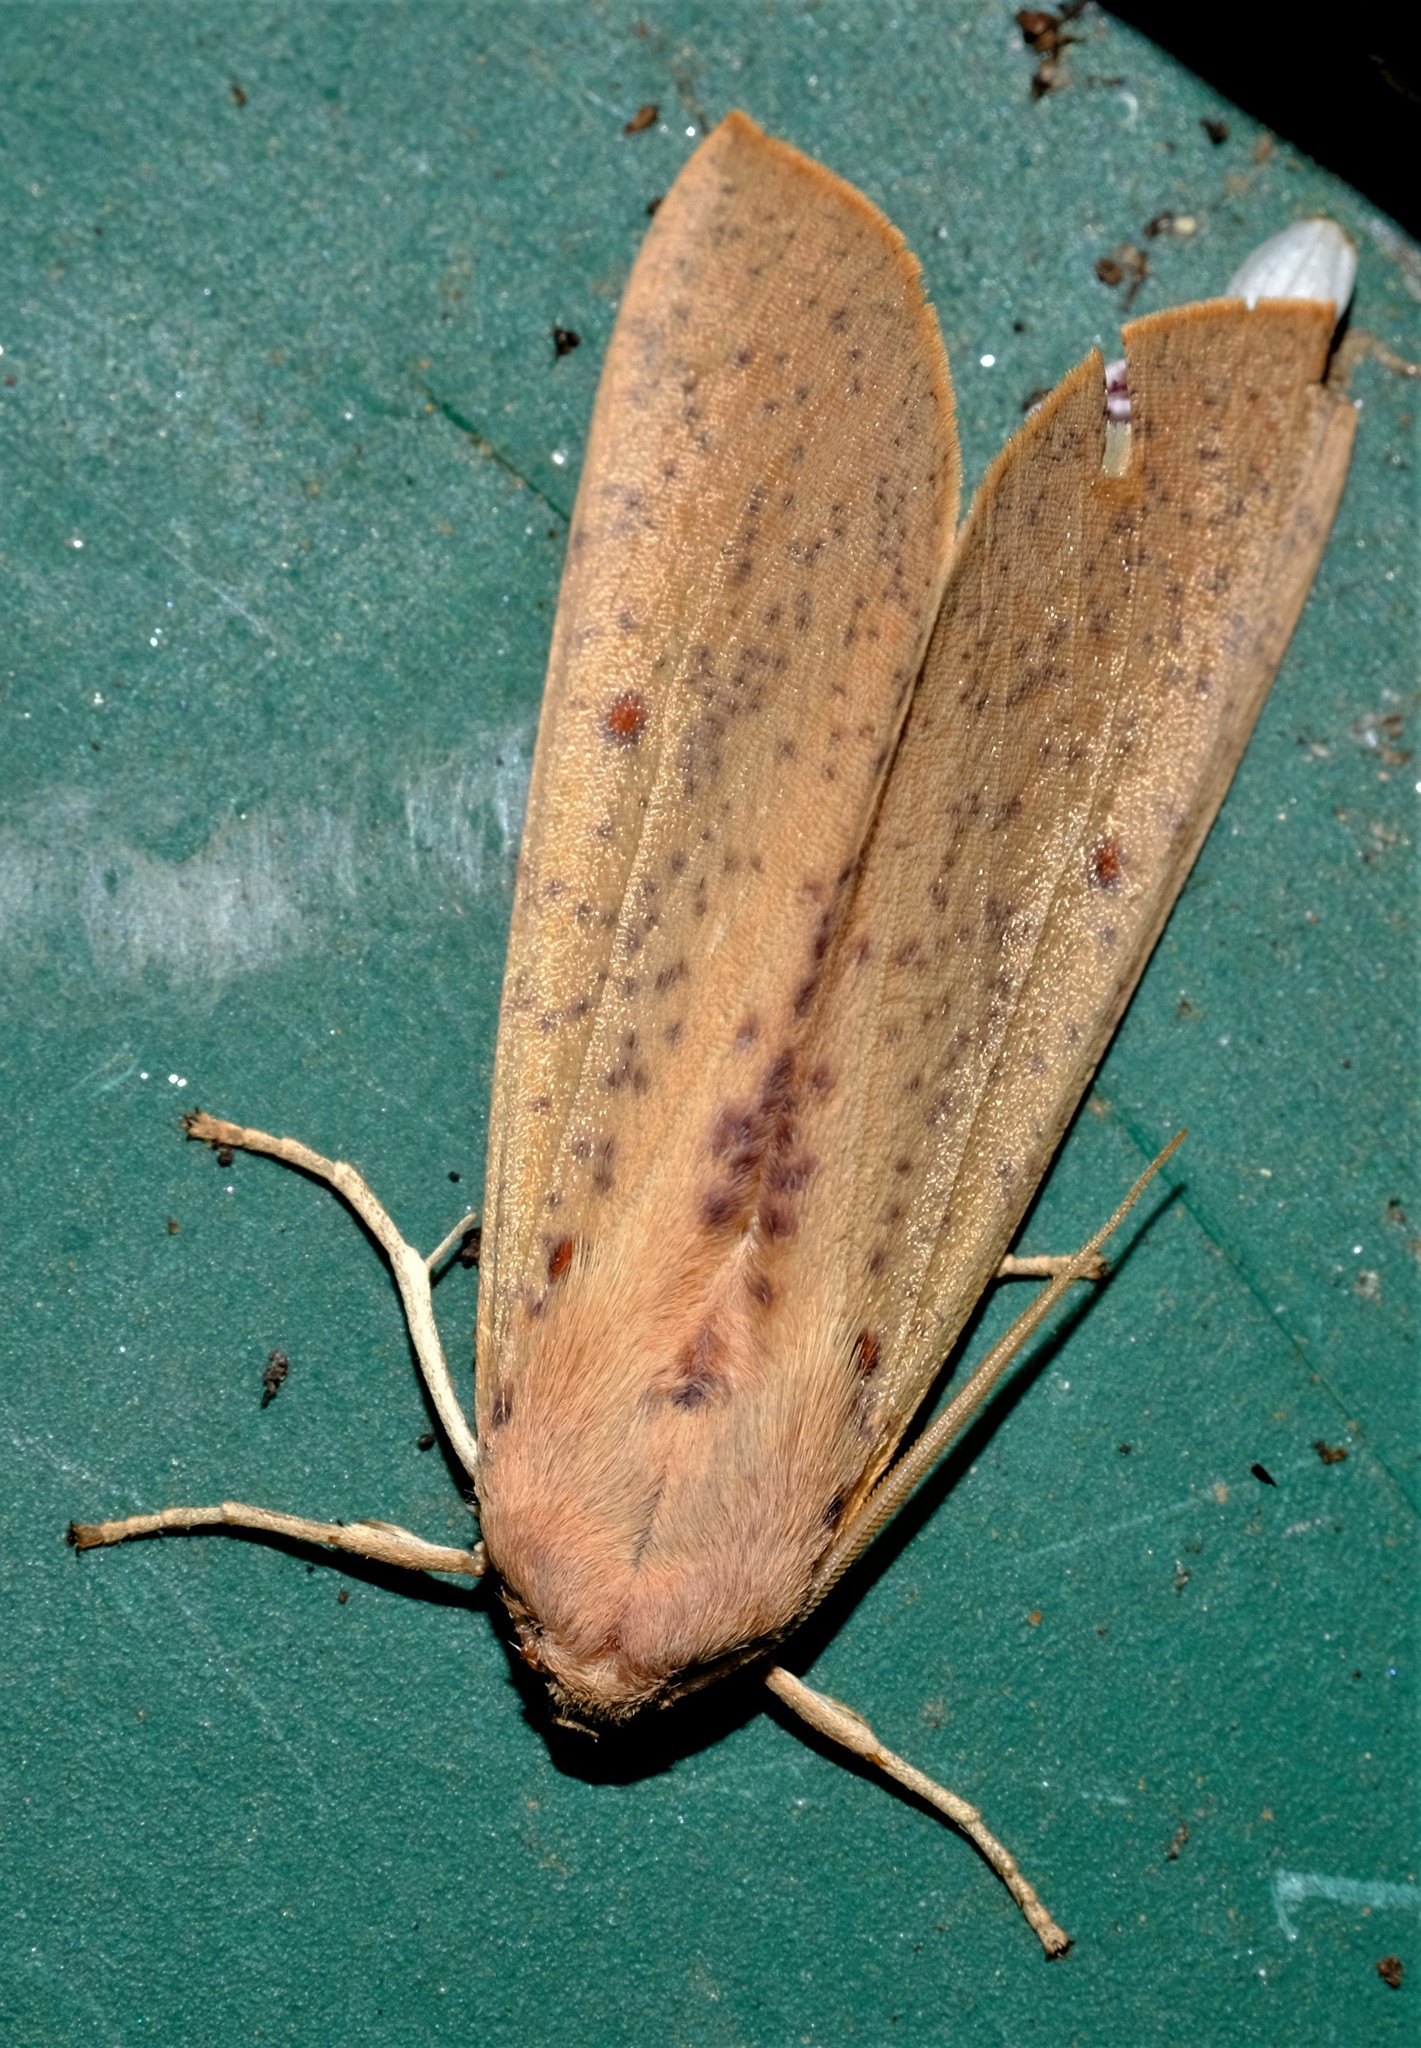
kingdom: Animalia
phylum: Arthropoda
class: Insecta
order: Lepidoptera
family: Geometridae
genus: Plesanemma
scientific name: Plesanemma fucata
